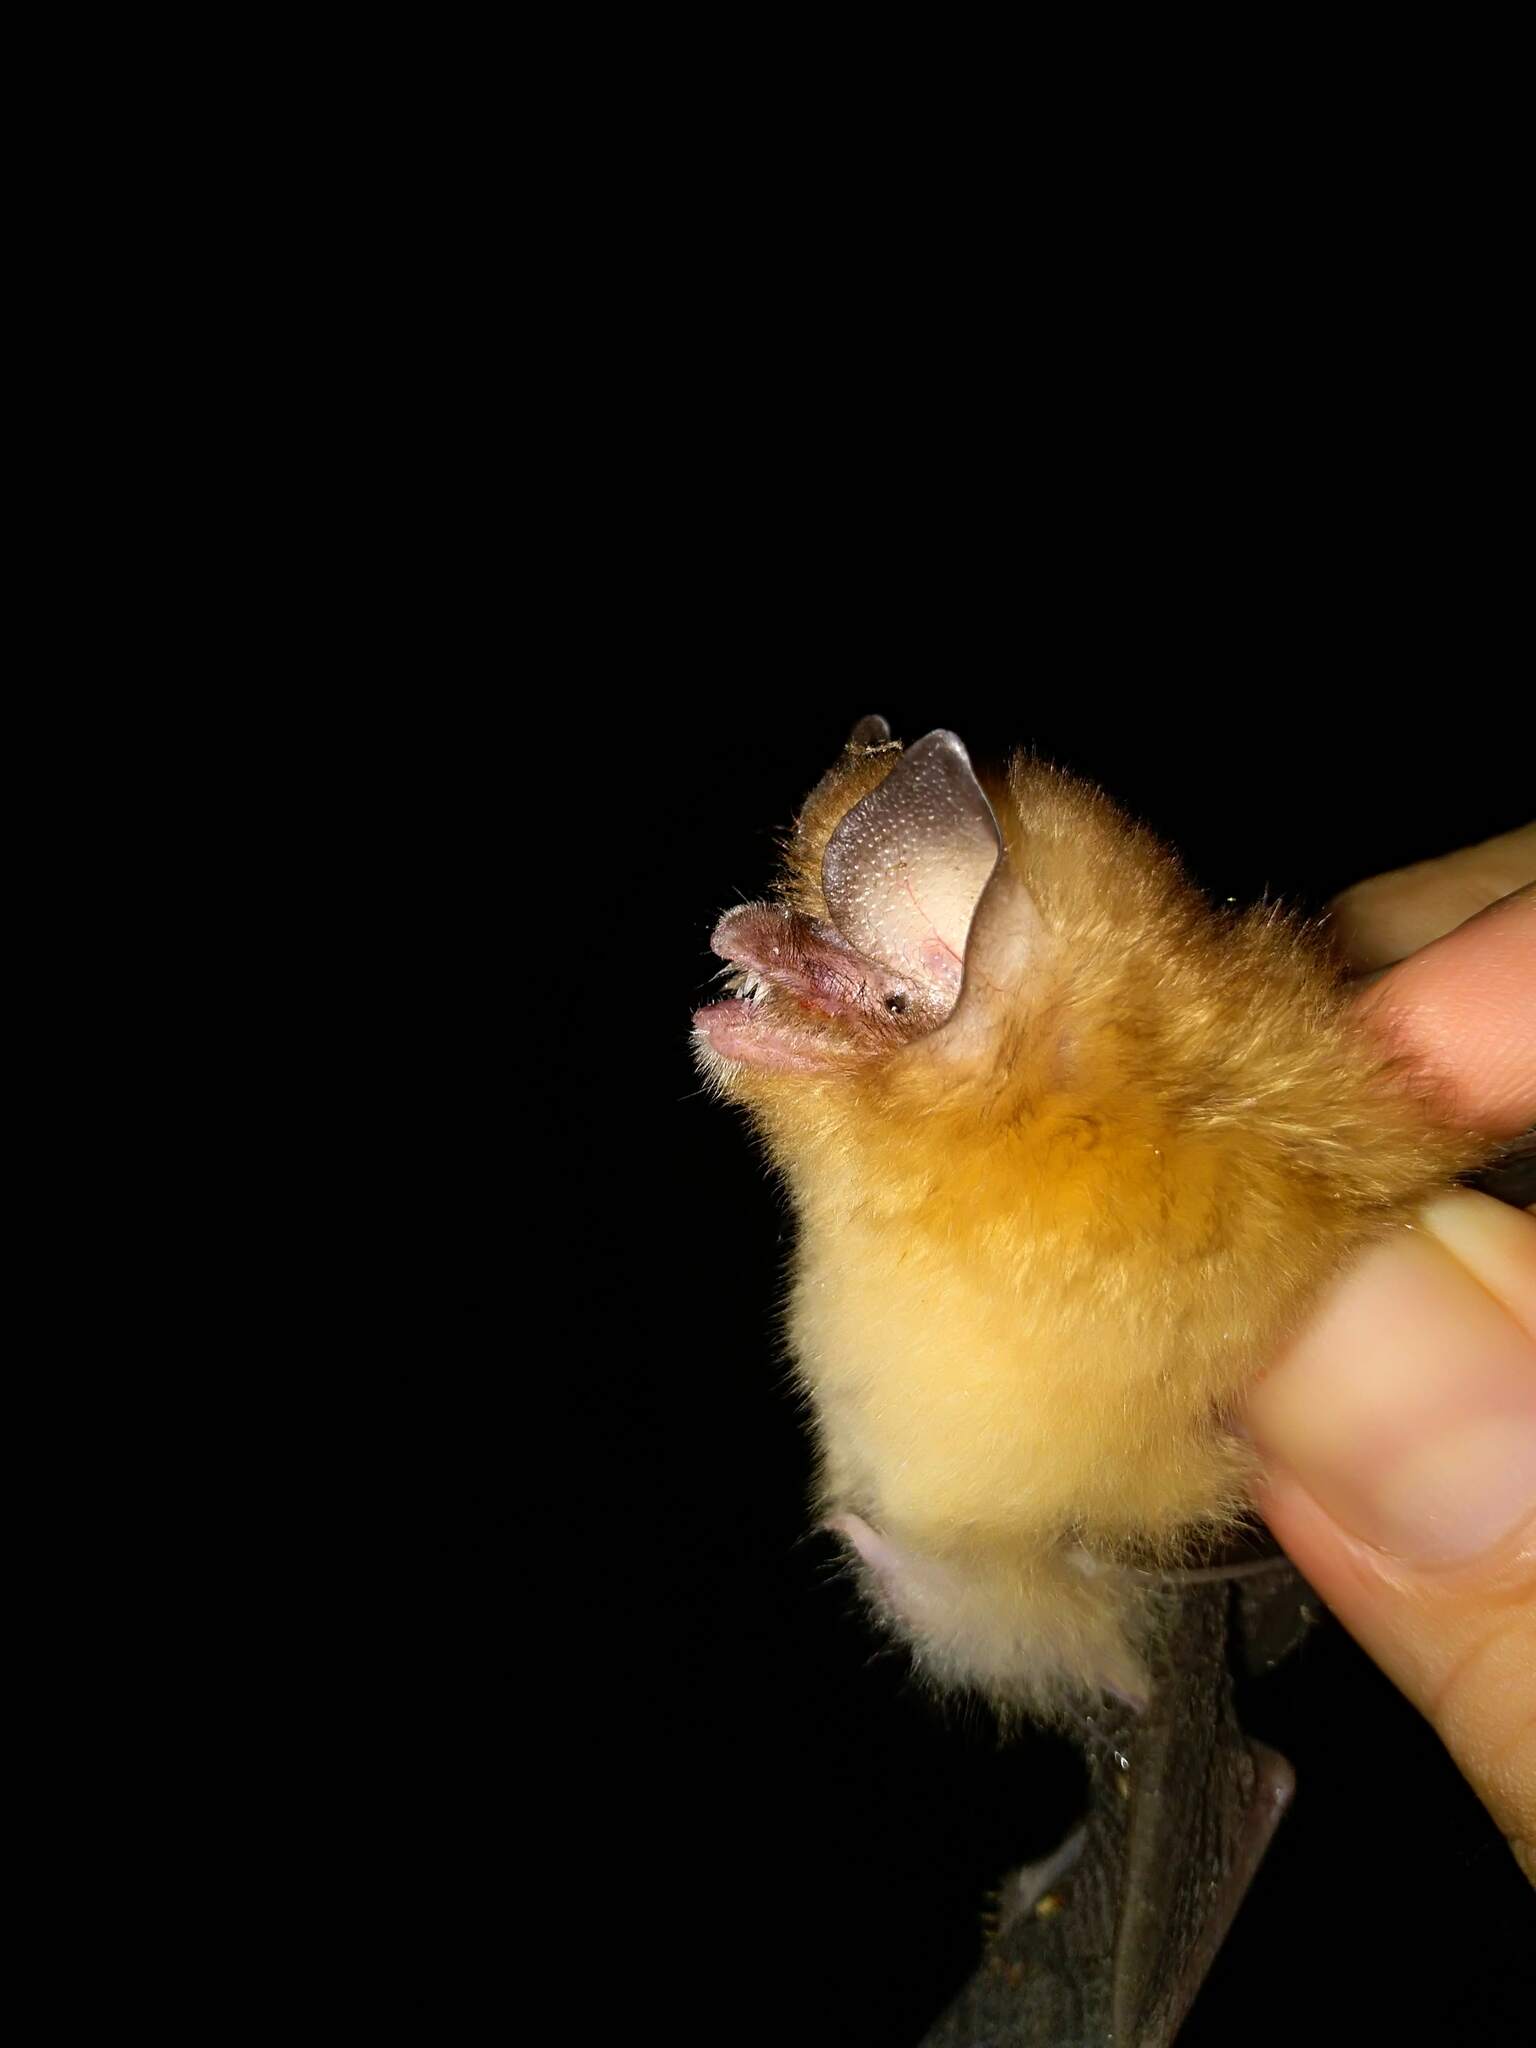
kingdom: Animalia
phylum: Chordata
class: Mammalia
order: Chiroptera
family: Natalidae
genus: Natalus
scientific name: Natalus mexicanus
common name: Mexican funnel-eared bat
